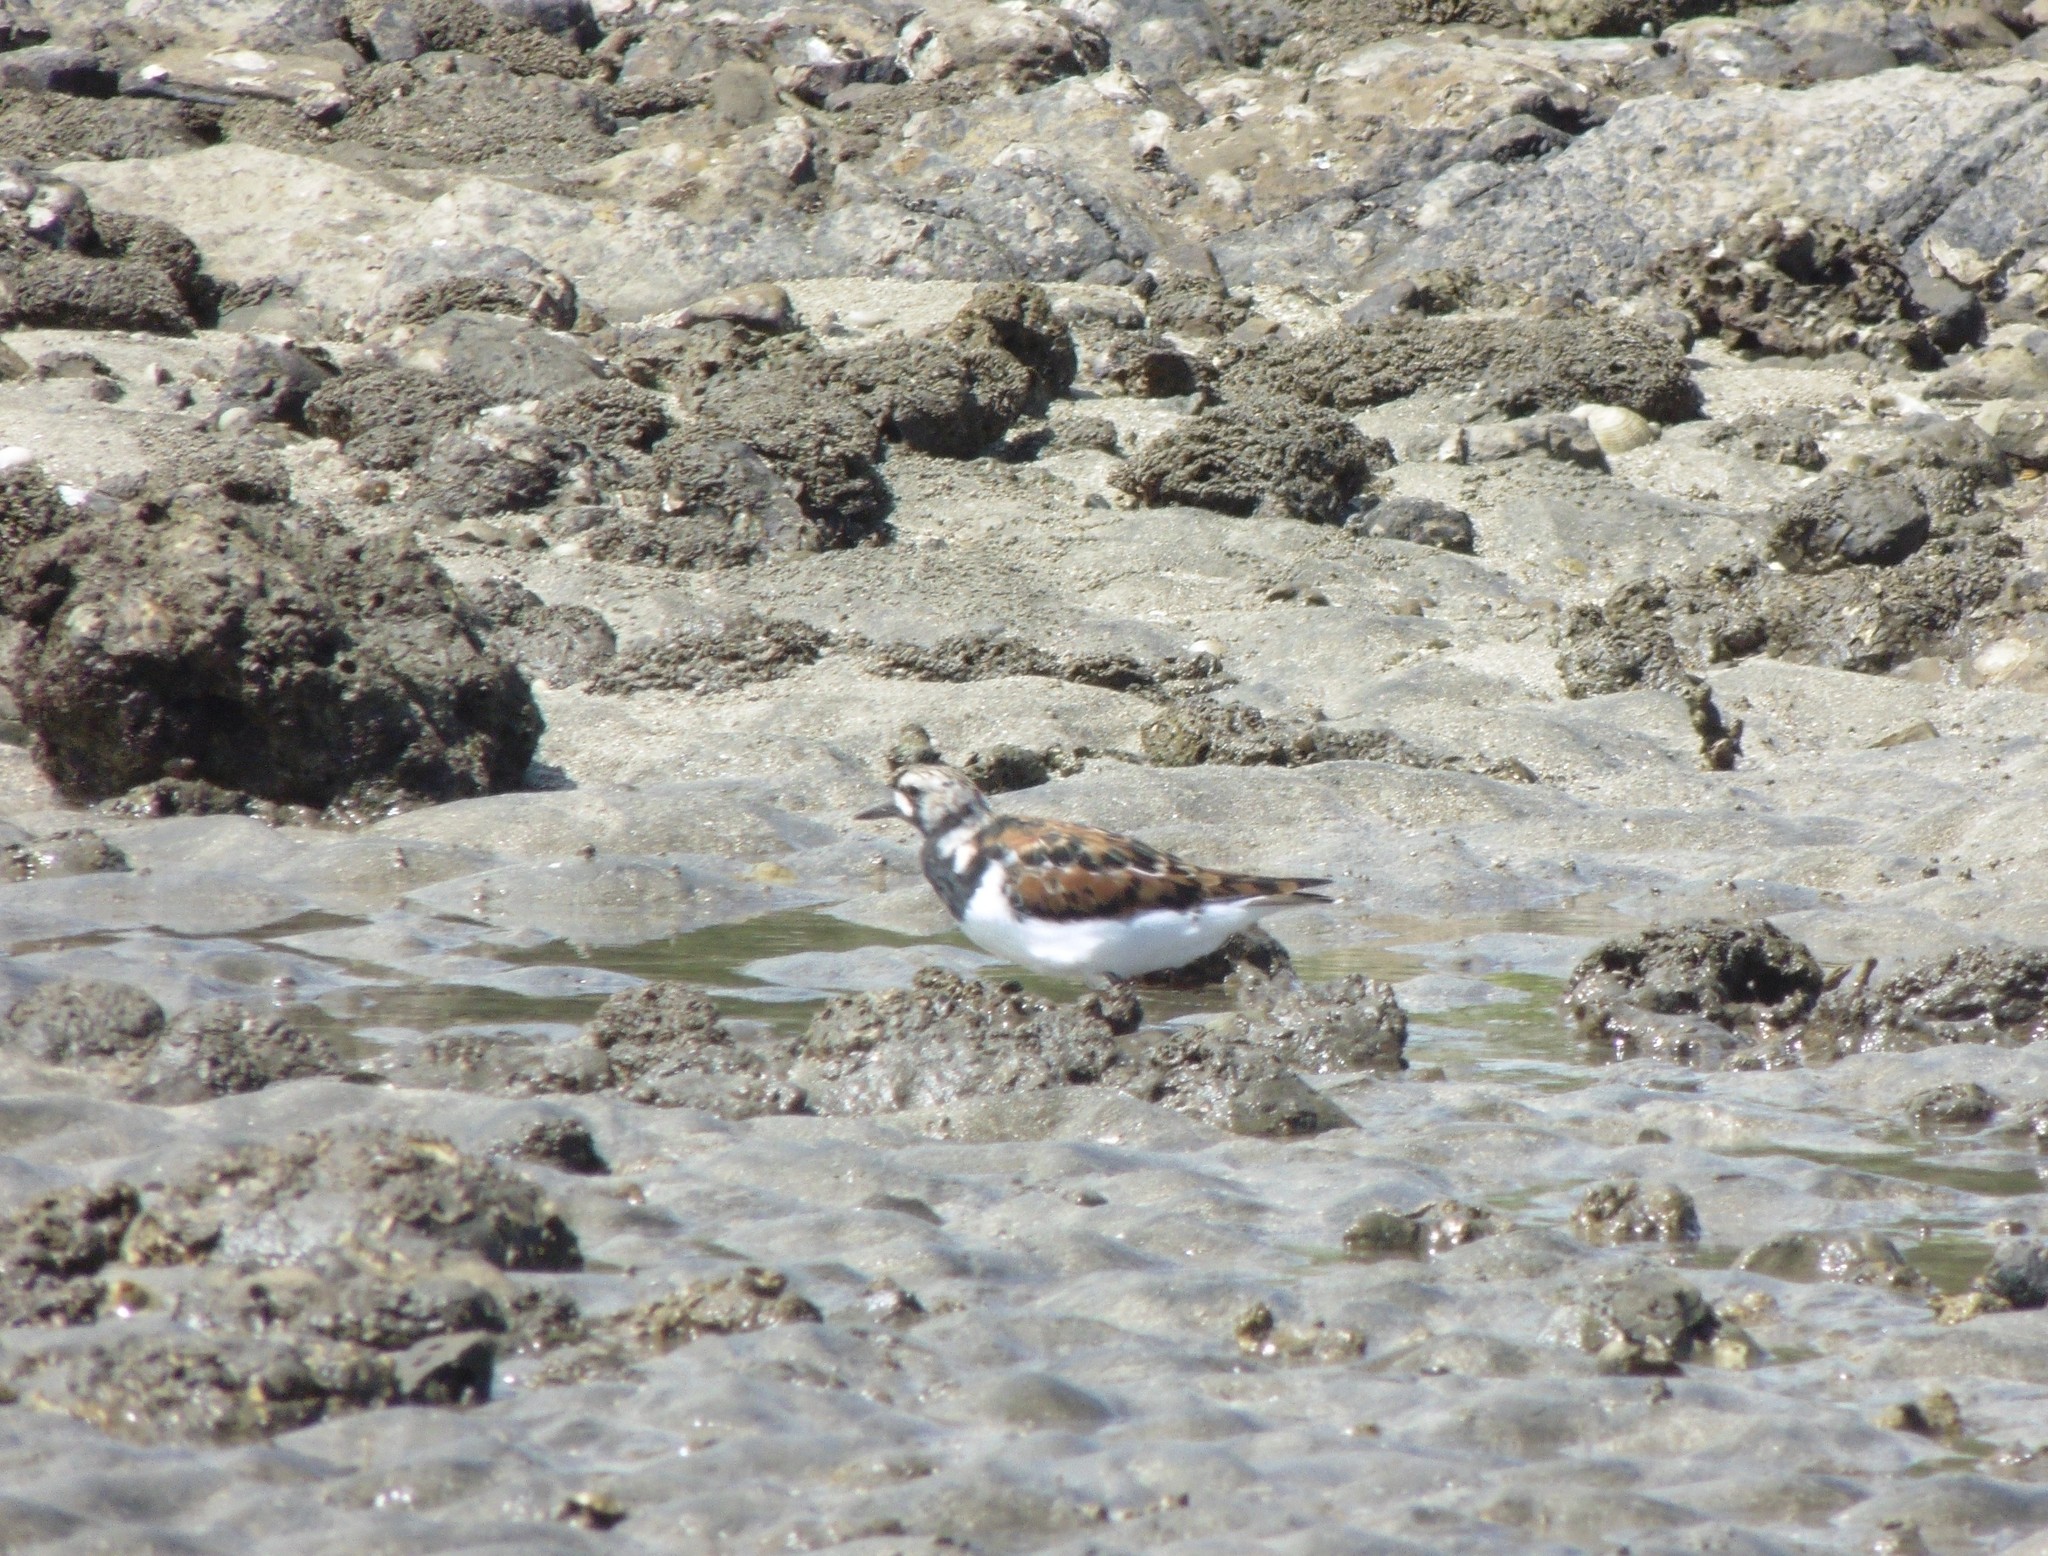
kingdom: Animalia
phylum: Chordata
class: Aves
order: Charadriiformes
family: Scolopacidae
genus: Arenaria
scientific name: Arenaria interpres
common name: Ruddy turnstone
